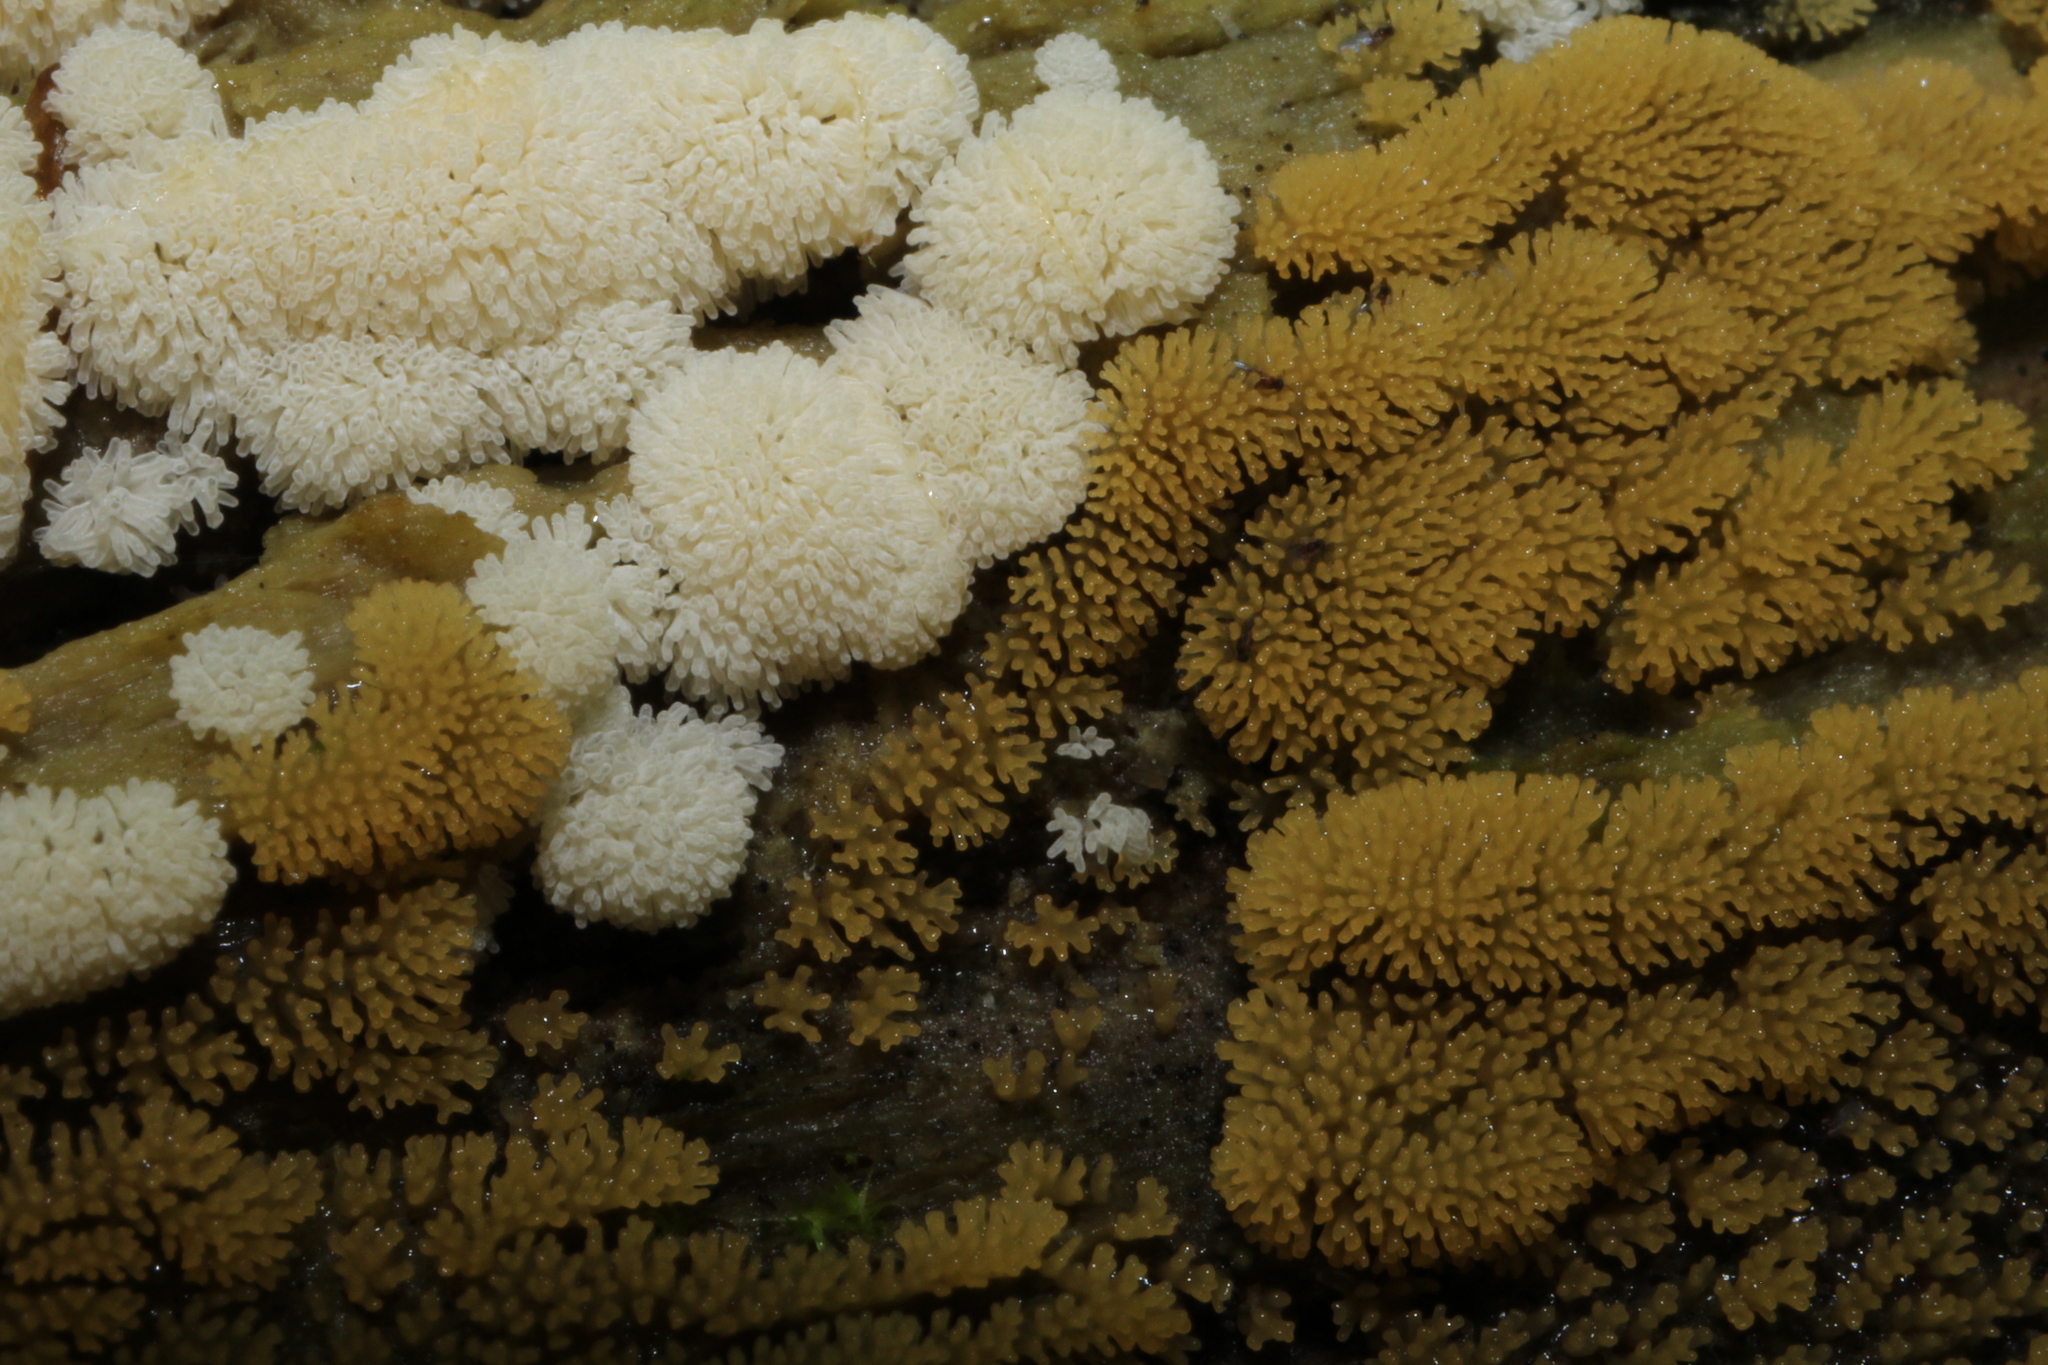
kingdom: Protozoa
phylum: Mycetozoa
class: Protosteliomycetes
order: Ceratiomyxales
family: Ceratiomyxaceae
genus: Ceratiomyxa
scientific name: Ceratiomyxa fruticulosa
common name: Honeycomb coral slime mold
